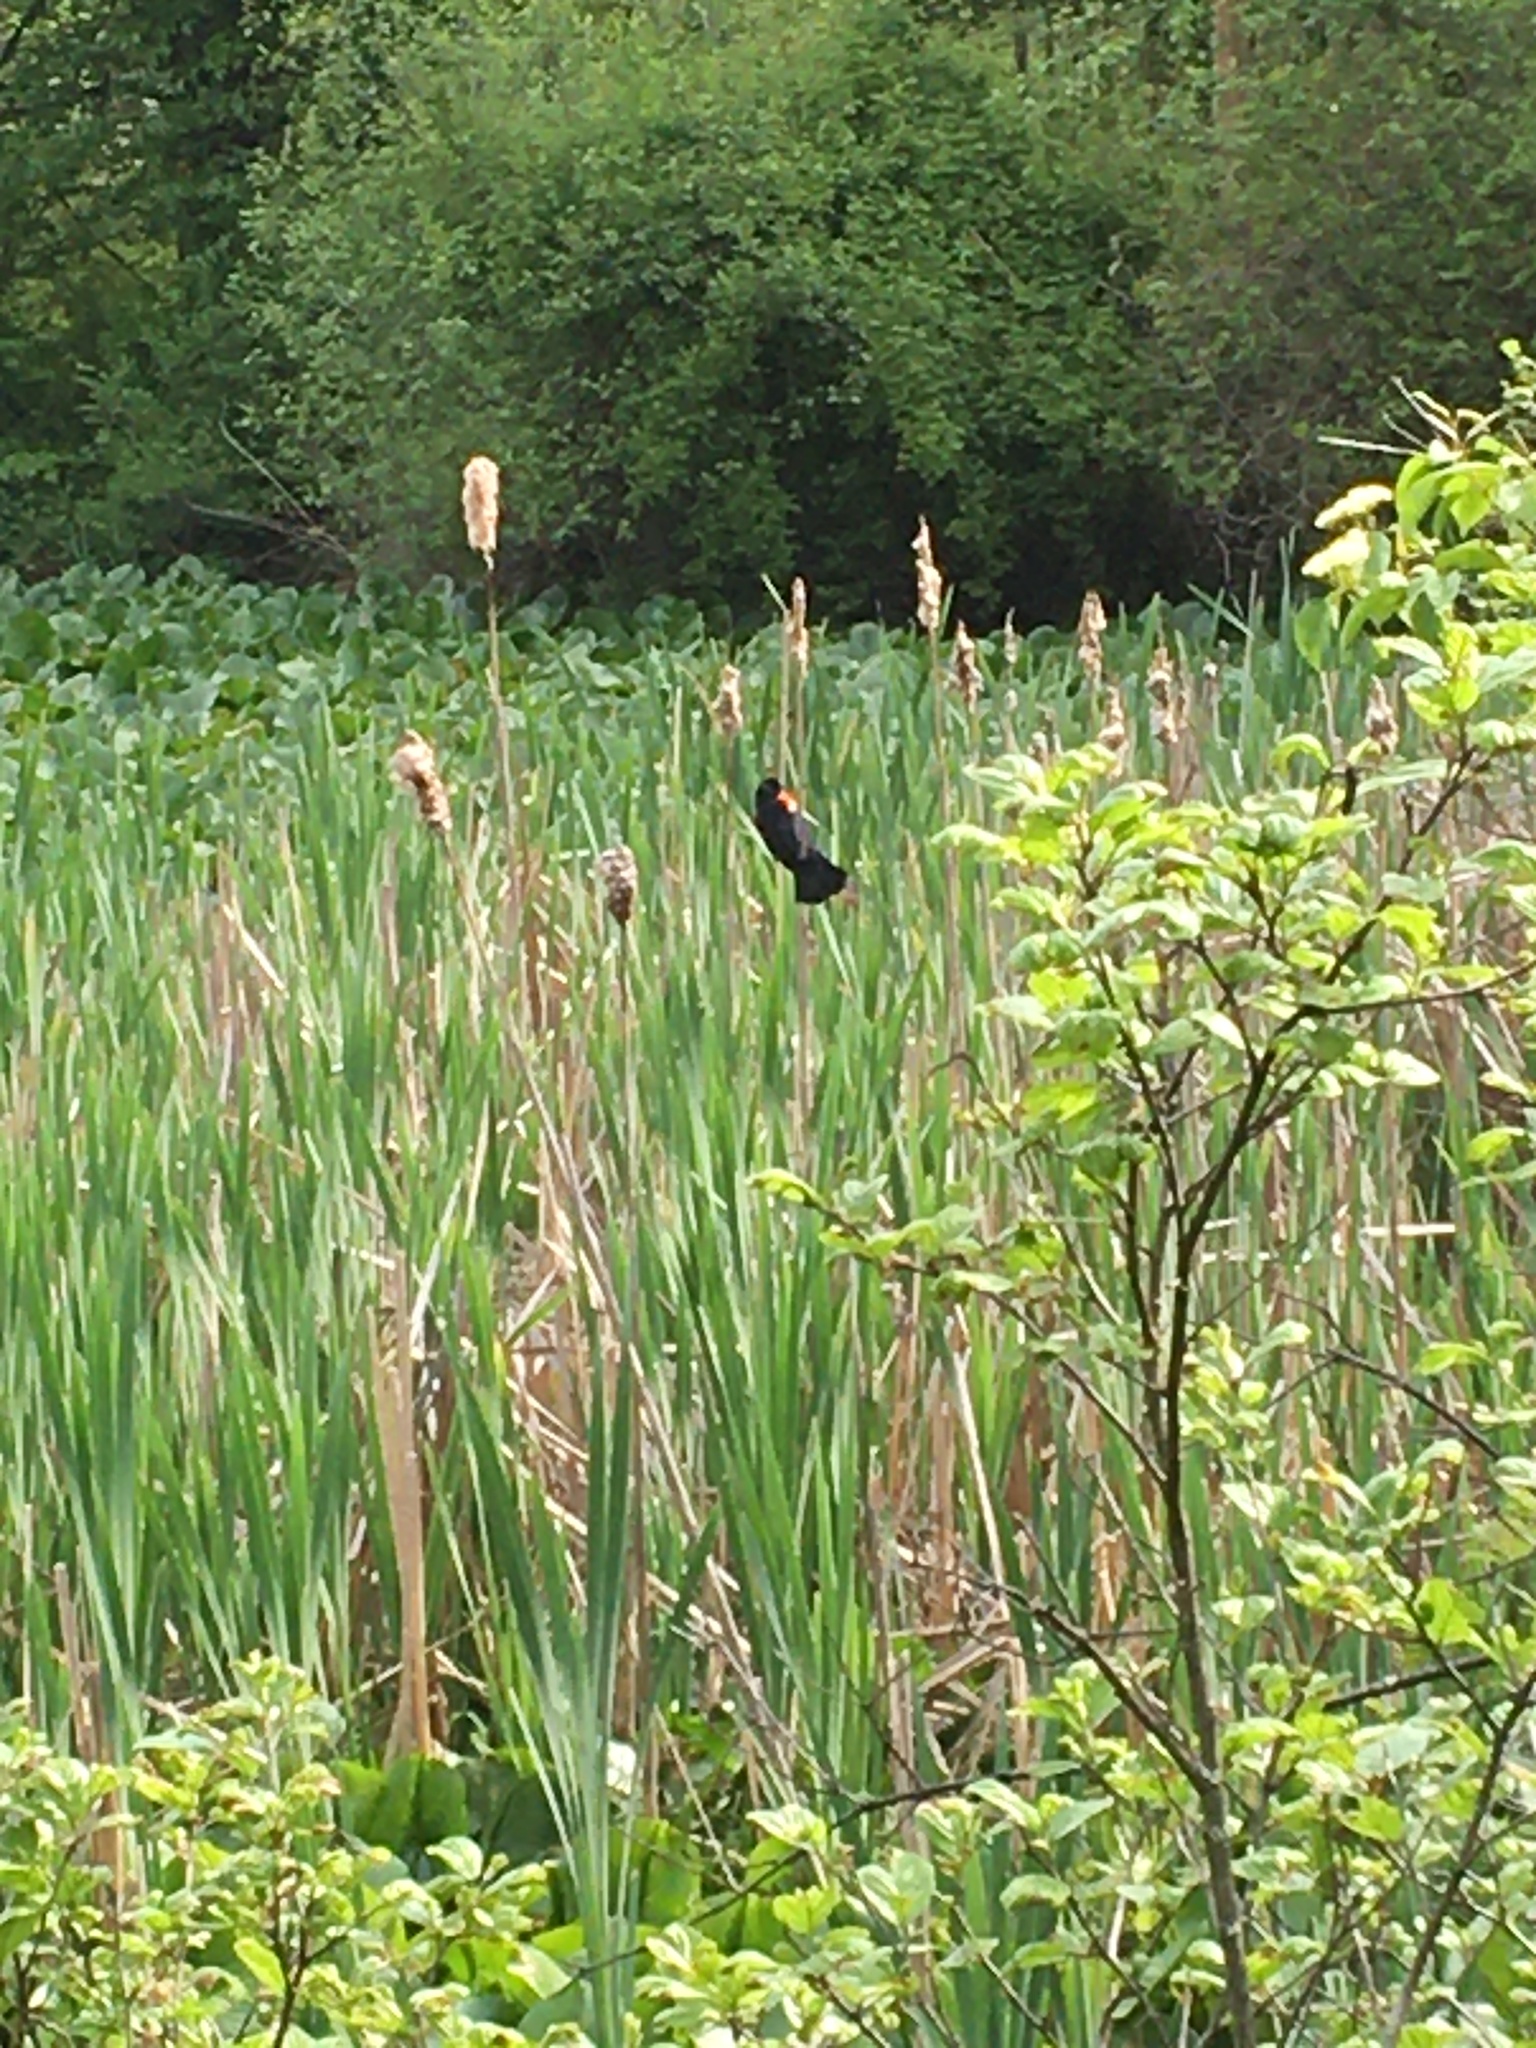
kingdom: Animalia
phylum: Chordata
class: Aves
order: Passeriformes
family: Icteridae
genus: Agelaius
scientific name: Agelaius phoeniceus
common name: Red-winged blackbird
